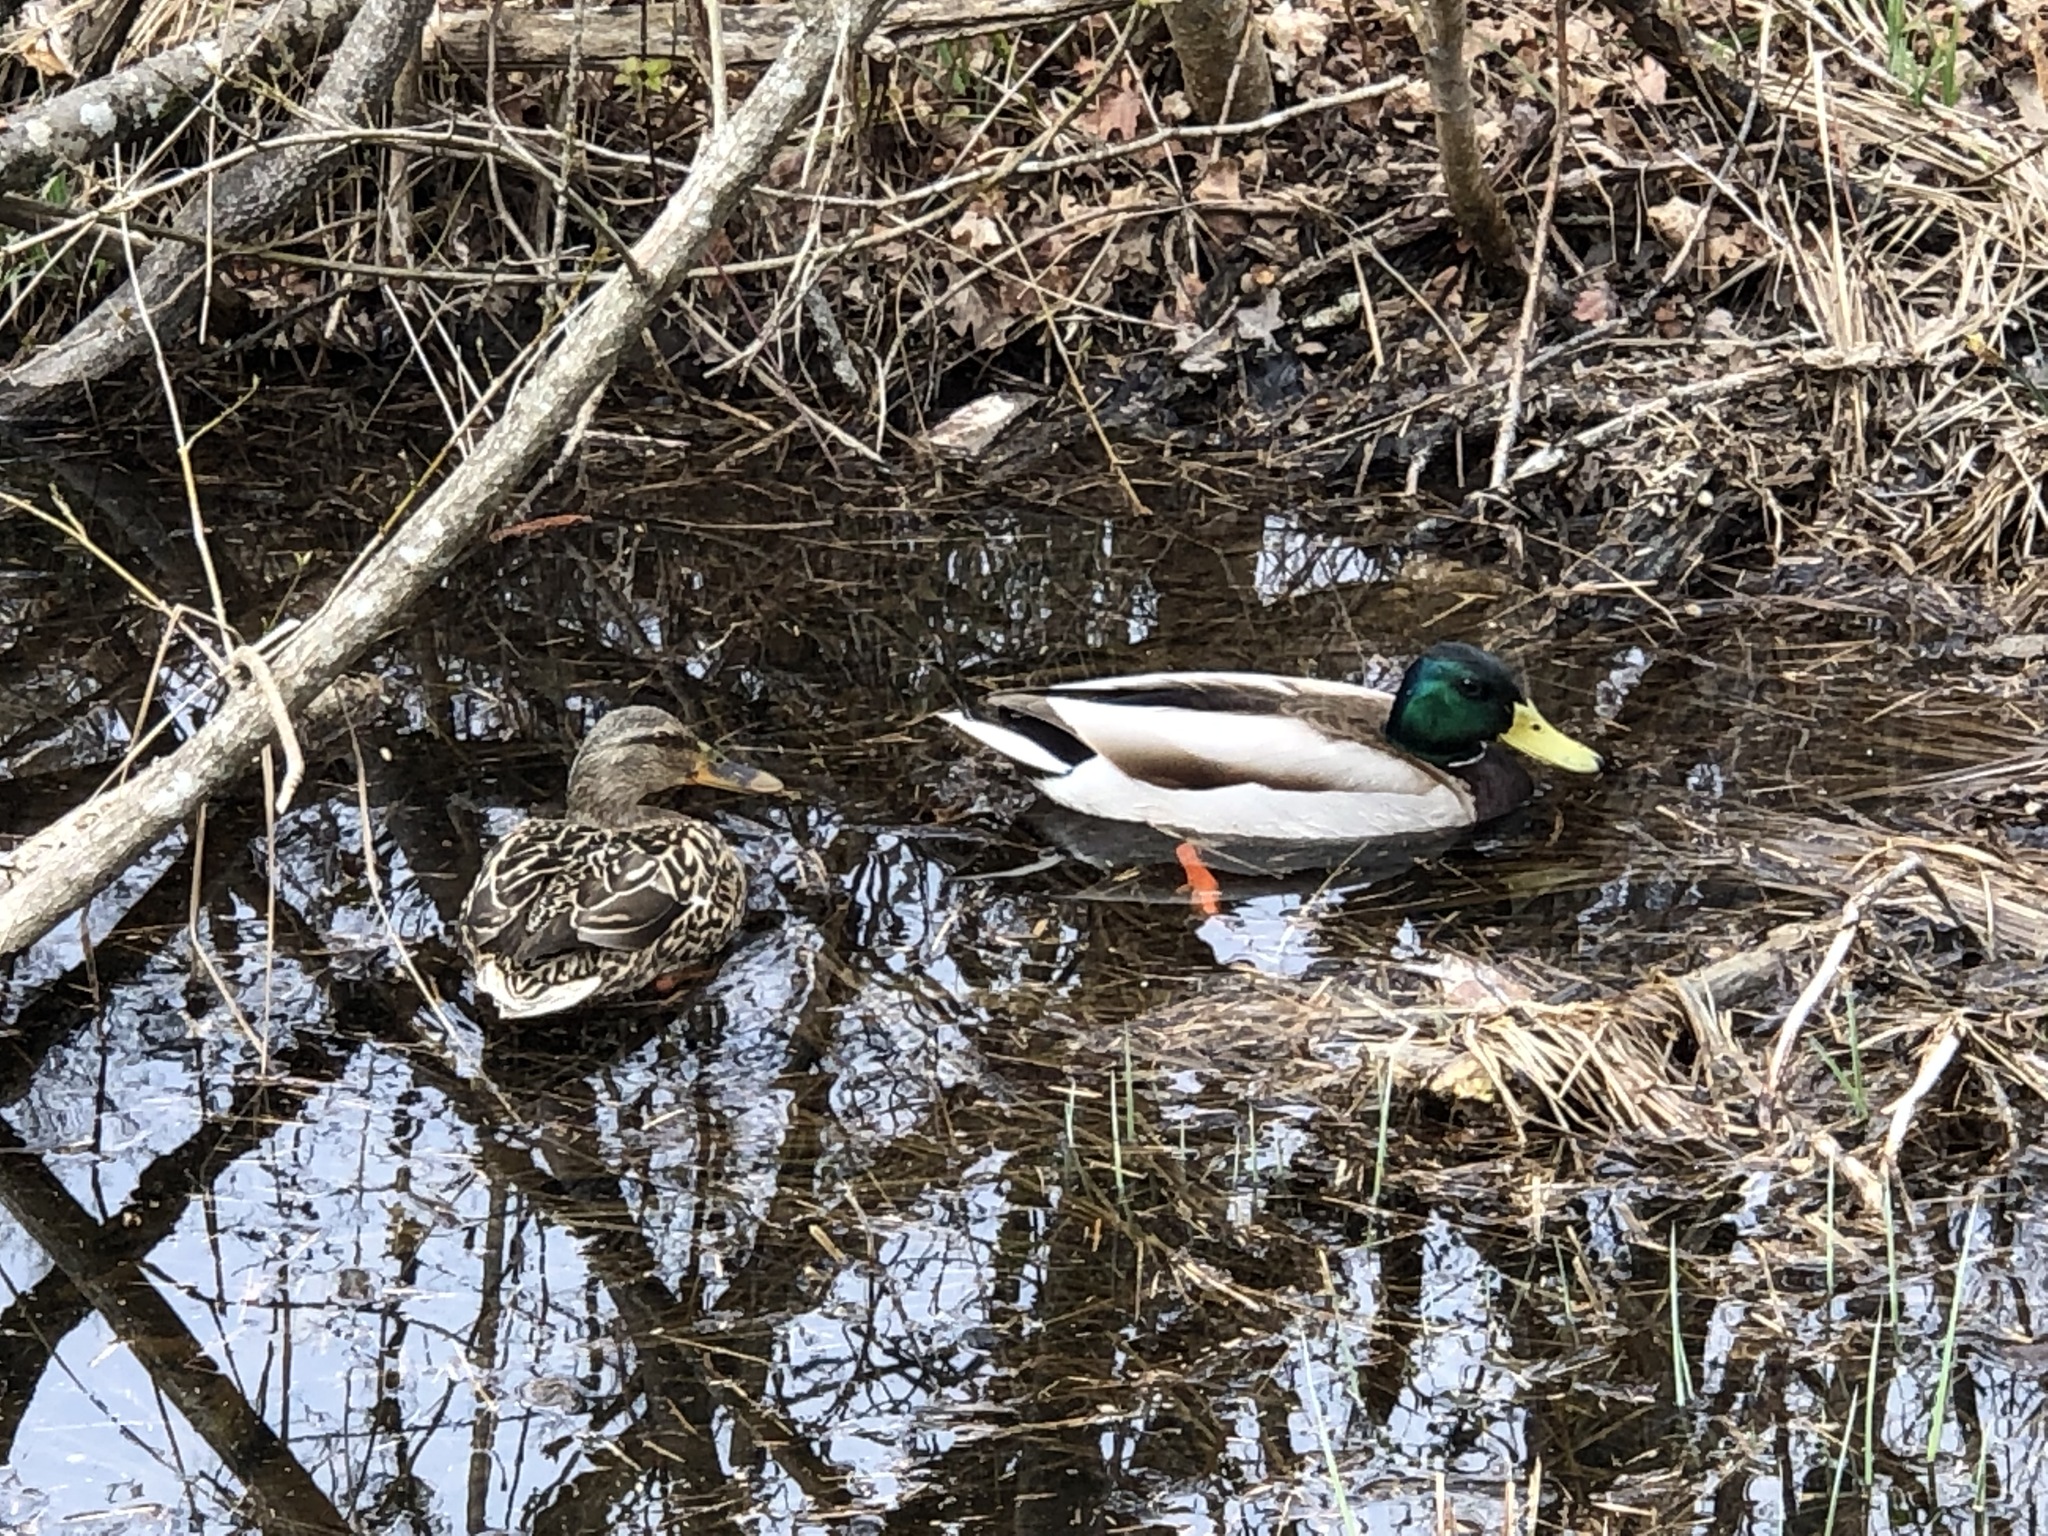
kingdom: Animalia
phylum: Chordata
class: Aves
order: Anseriformes
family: Anatidae
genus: Anas
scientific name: Anas platyrhynchos
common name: Mallard
